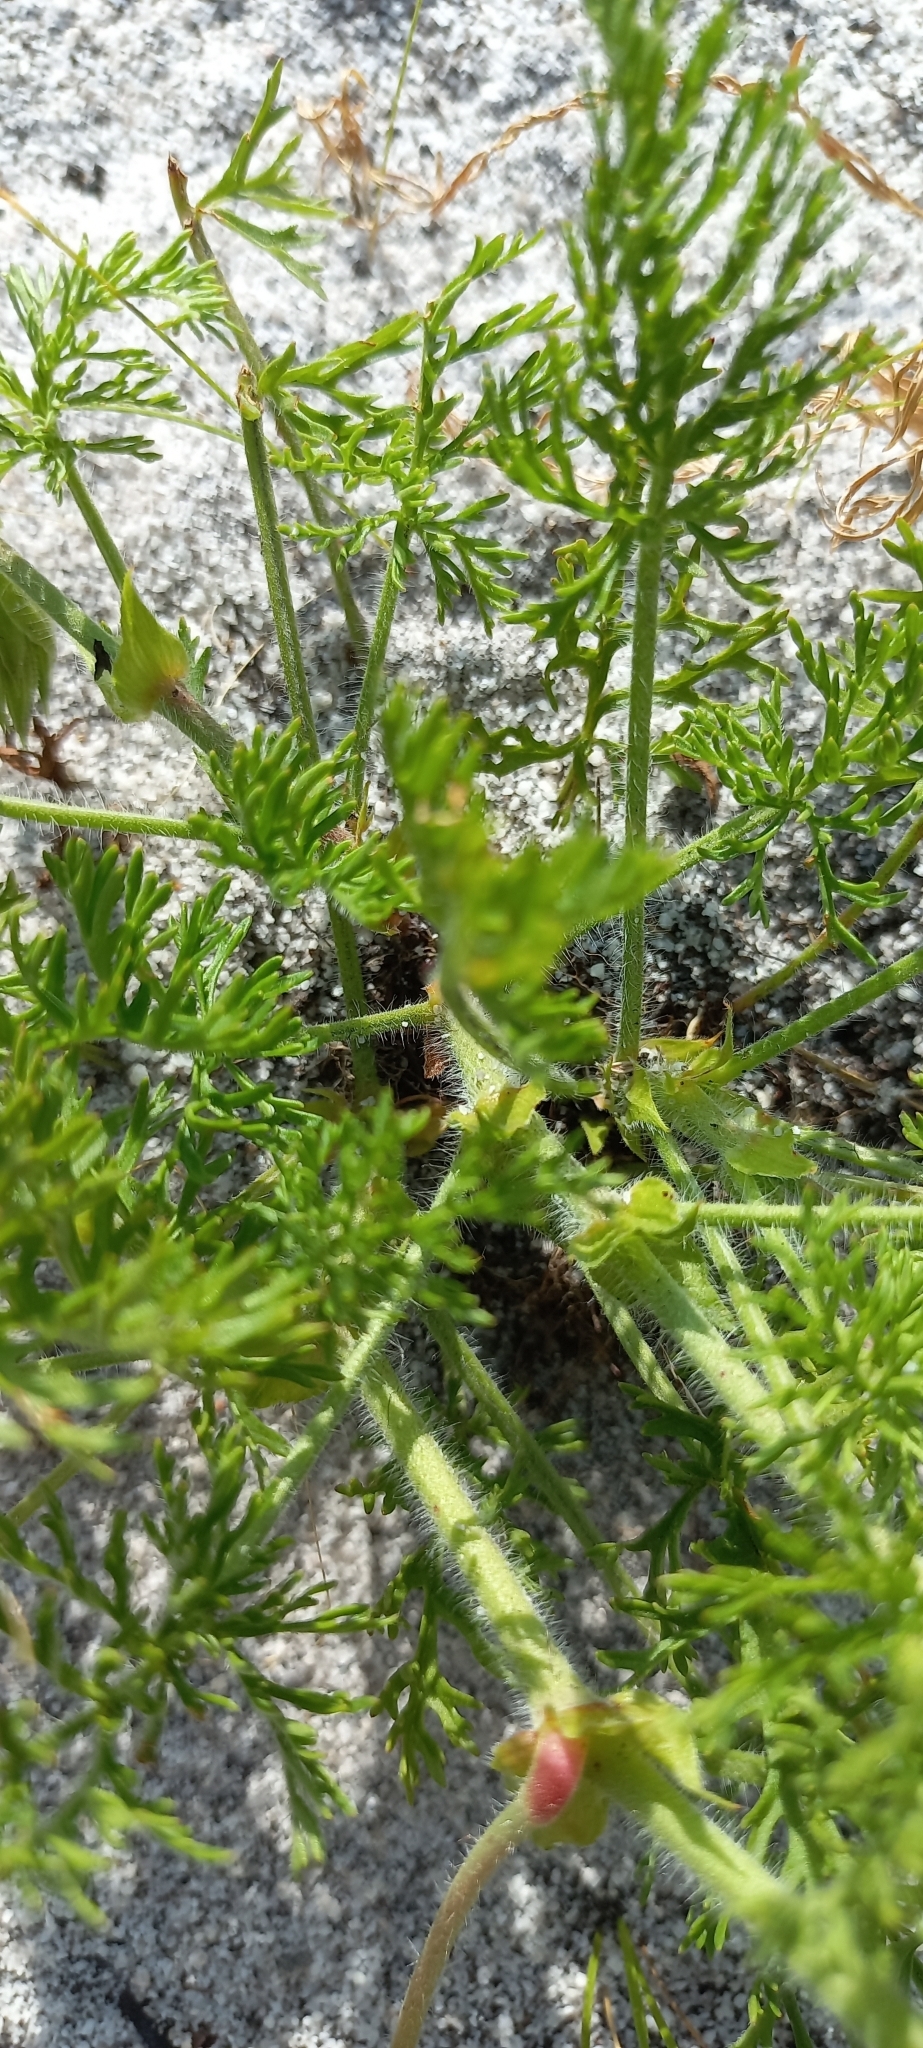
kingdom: Plantae
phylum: Tracheophyta
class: Magnoliopsida
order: Geraniales
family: Geraniaceae
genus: Pelargonium
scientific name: Pelargonium myrrhifolium
